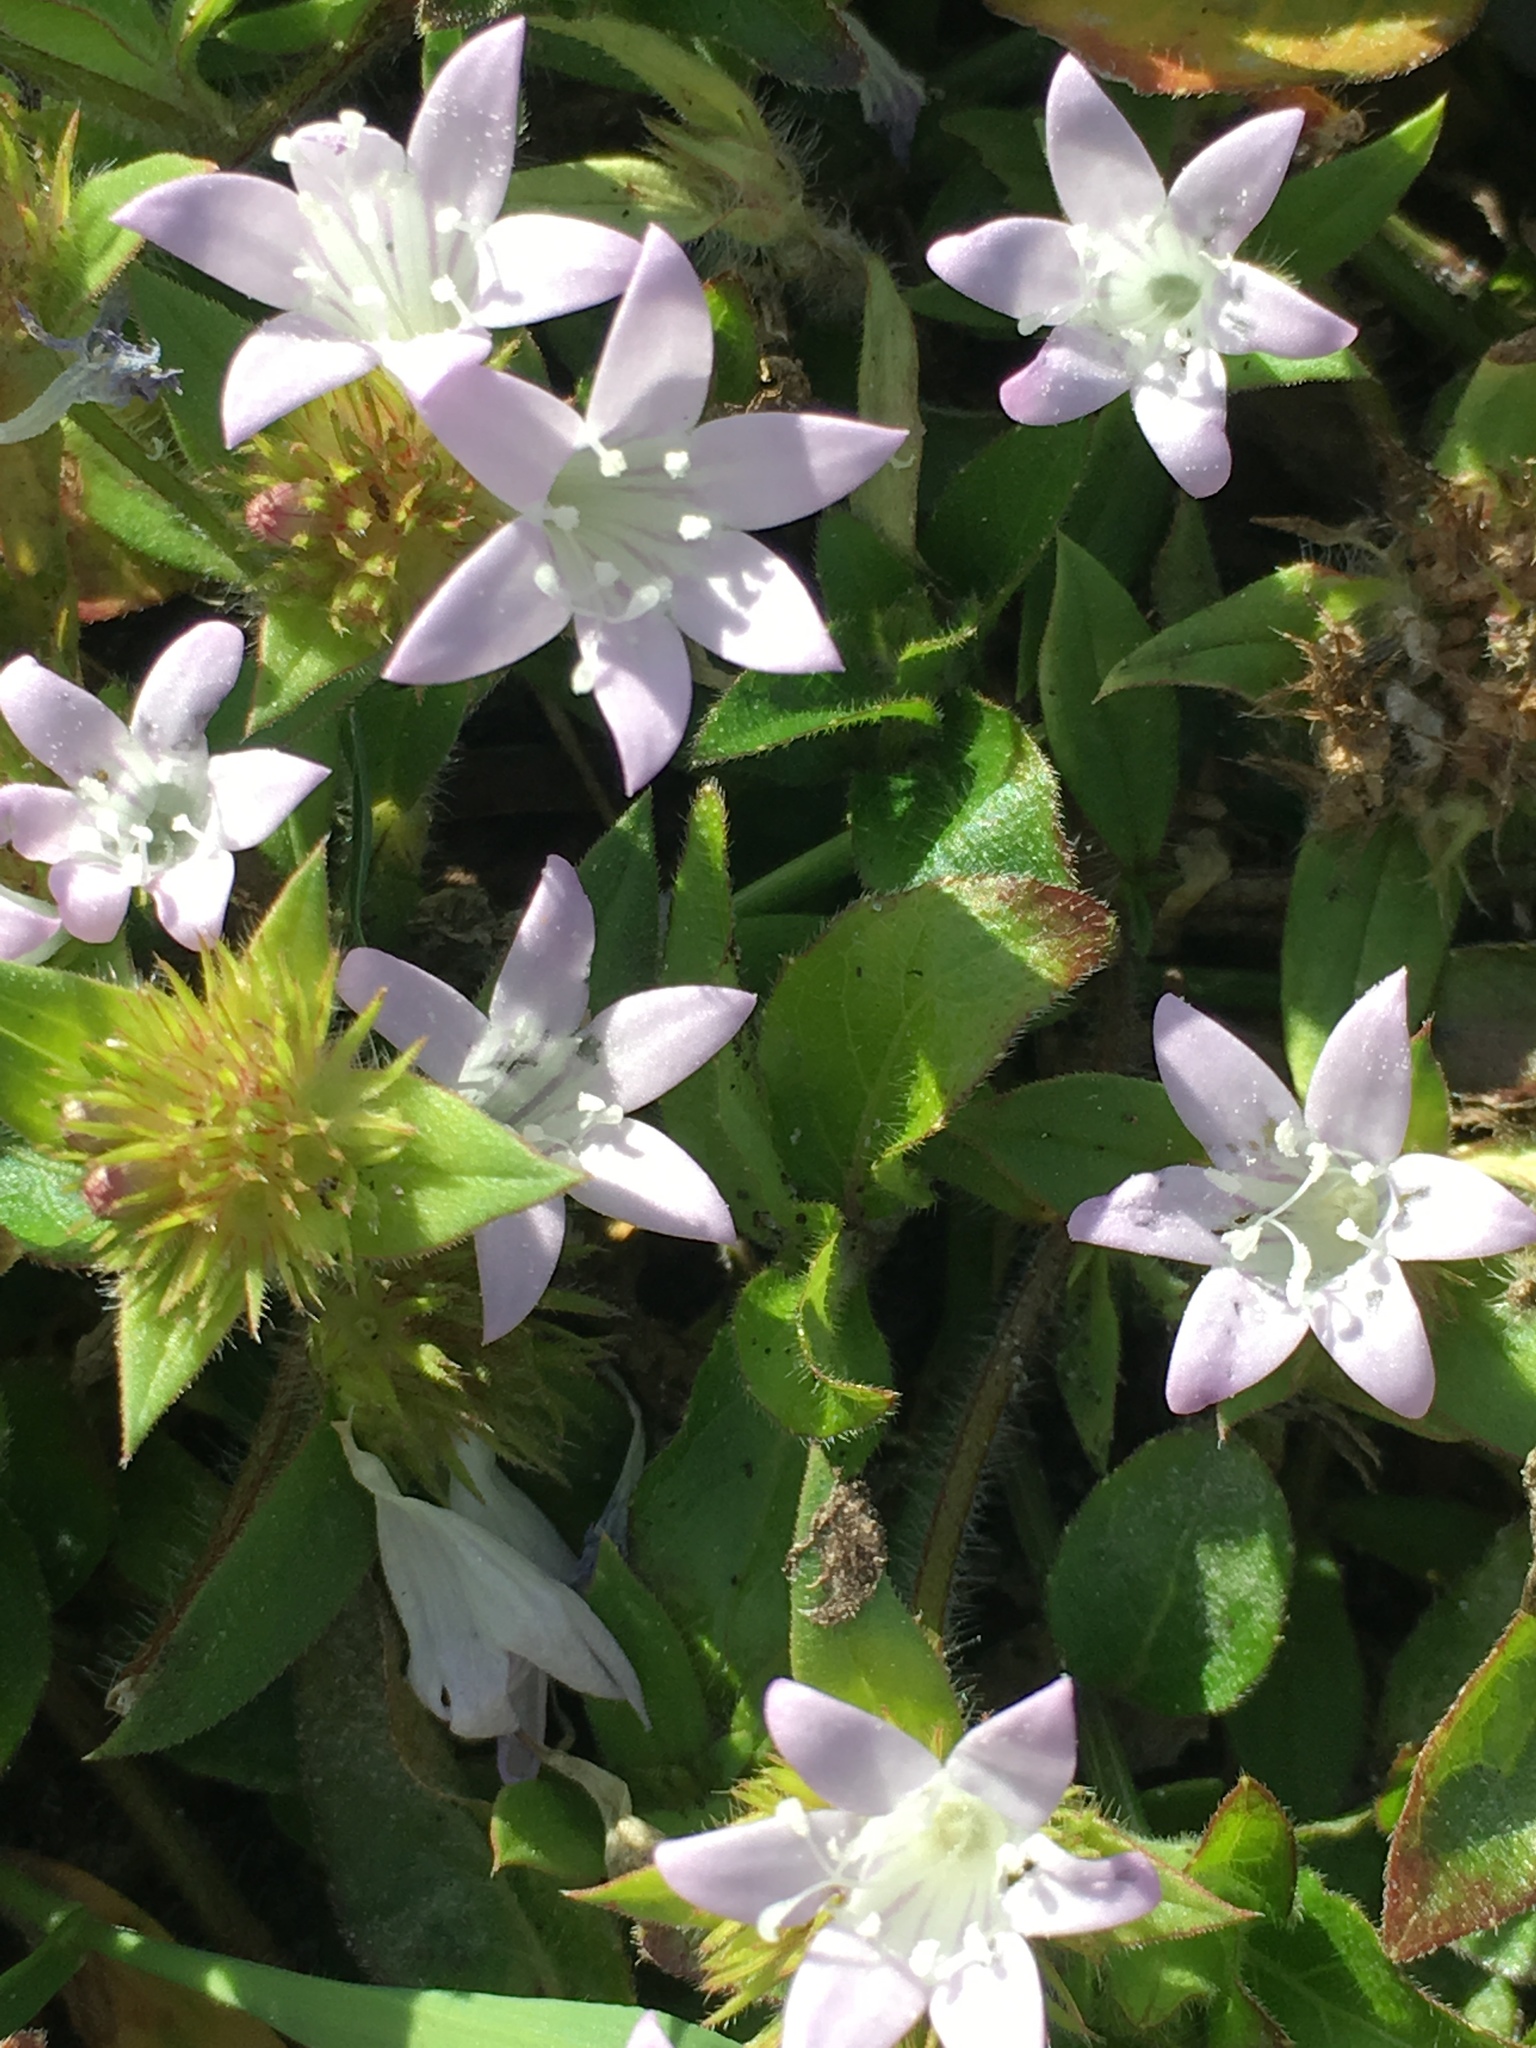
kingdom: Plantae
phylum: Tracheophyta
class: Magnoliopsida
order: Gentianales
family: Rubiaceae
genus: Richardia
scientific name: Richardia grandiflora
